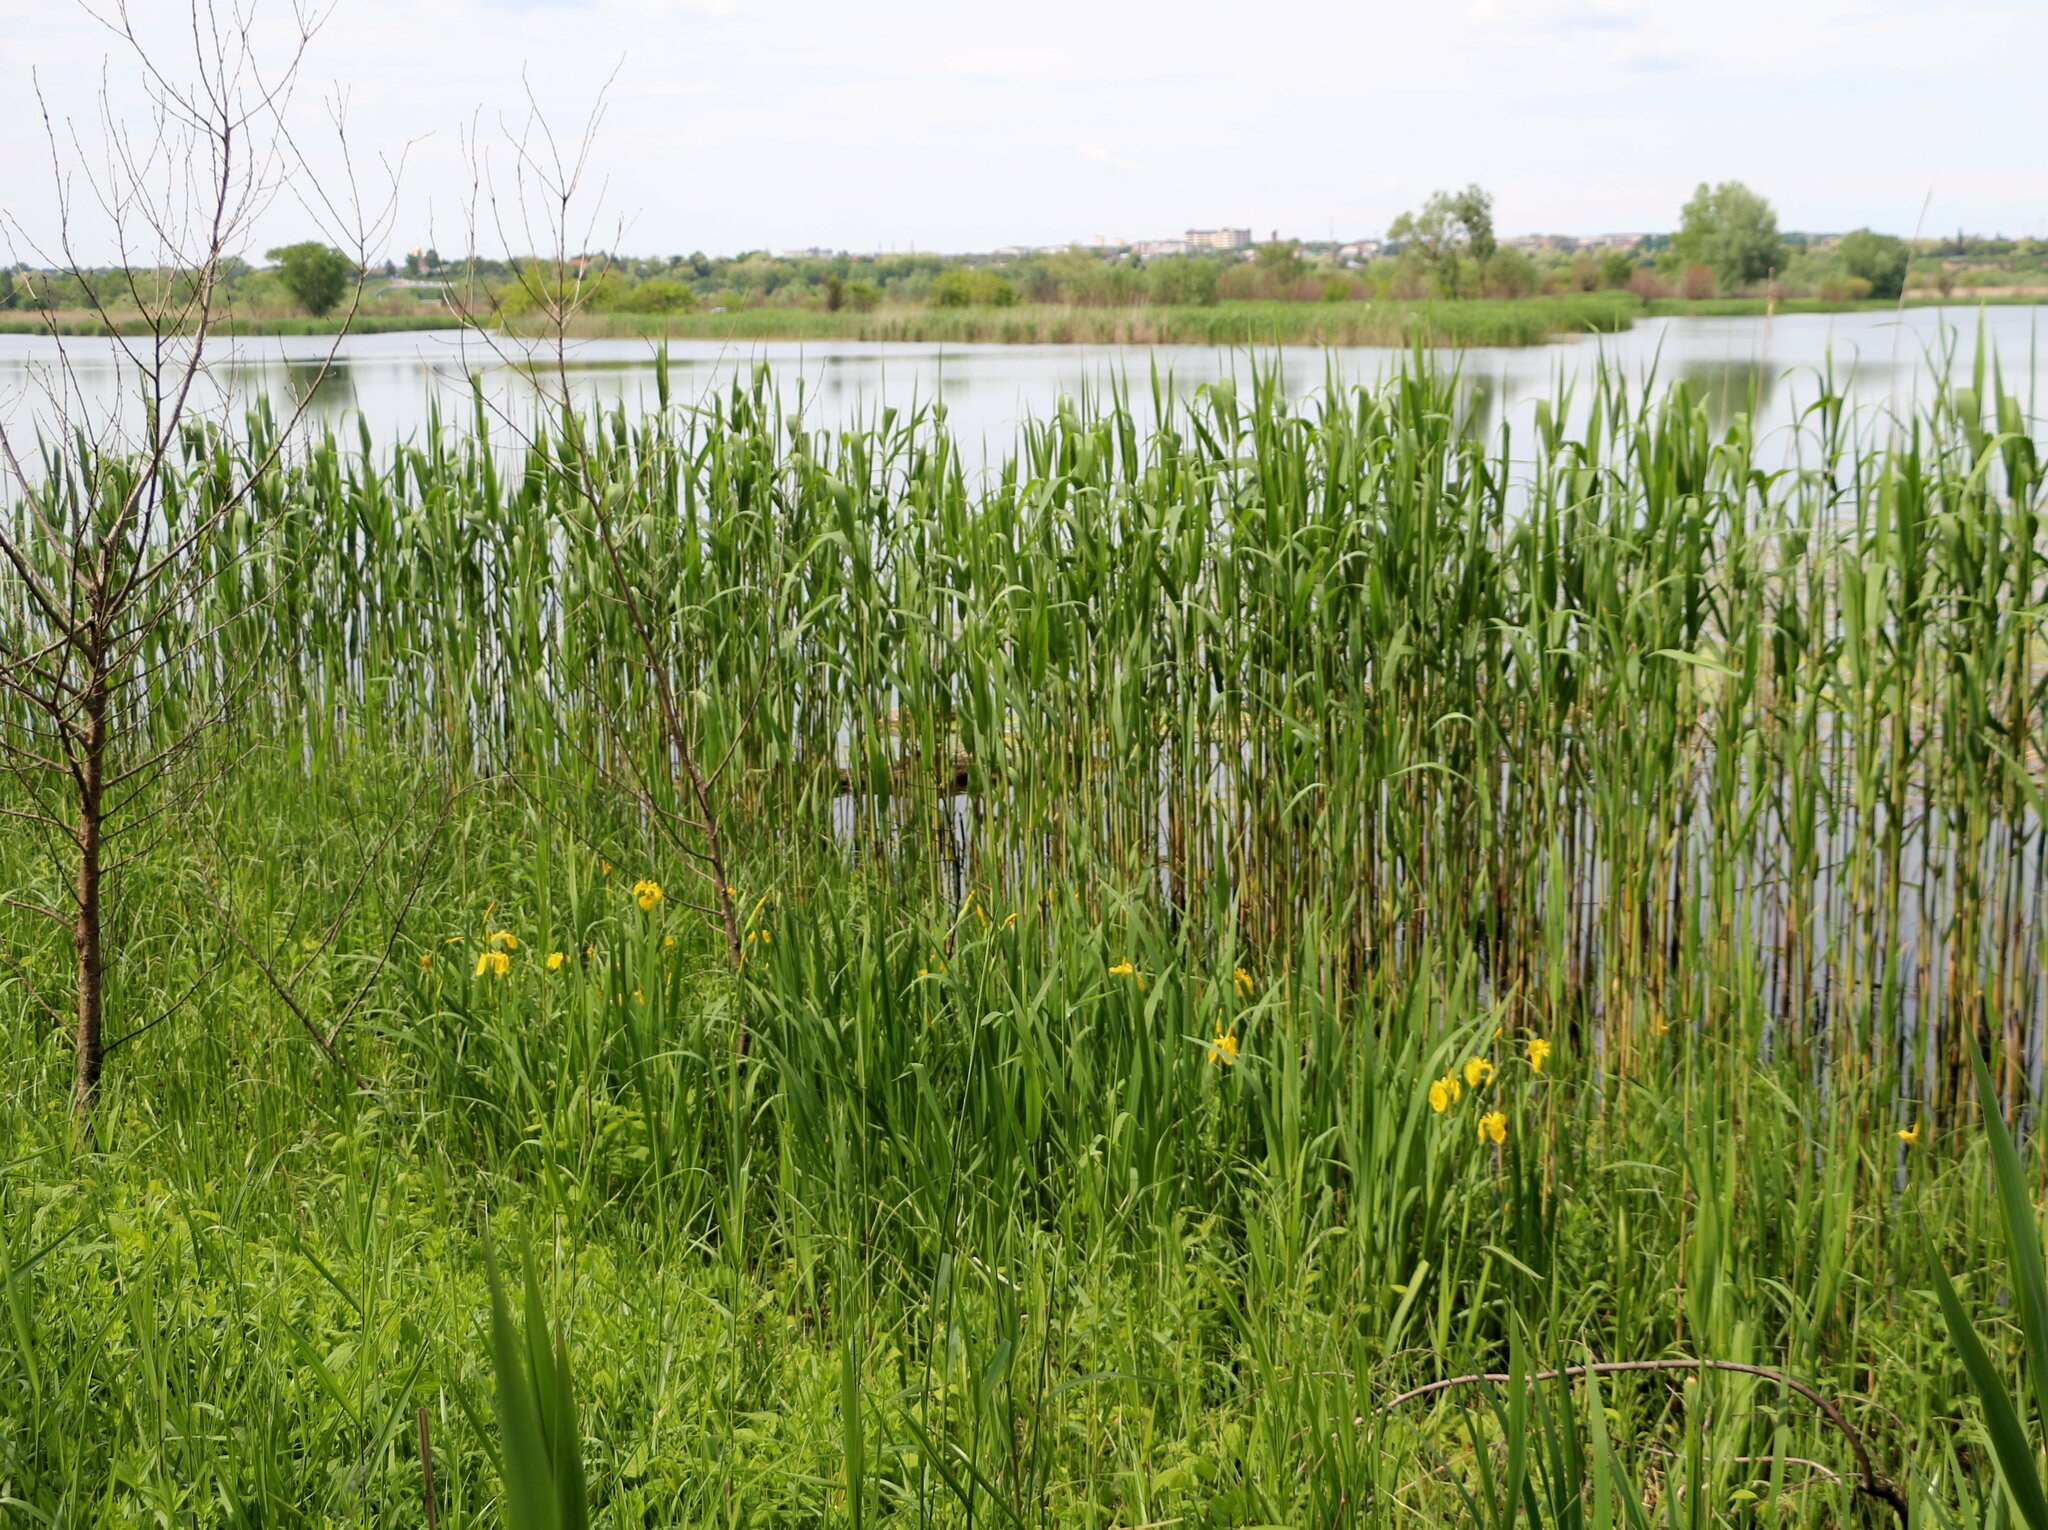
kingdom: Plantae
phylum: Tracheophyta
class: Liliopsida
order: Asparagales
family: Iridaceae
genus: Iris
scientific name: Iris pseudacorus
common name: Yellow flag
